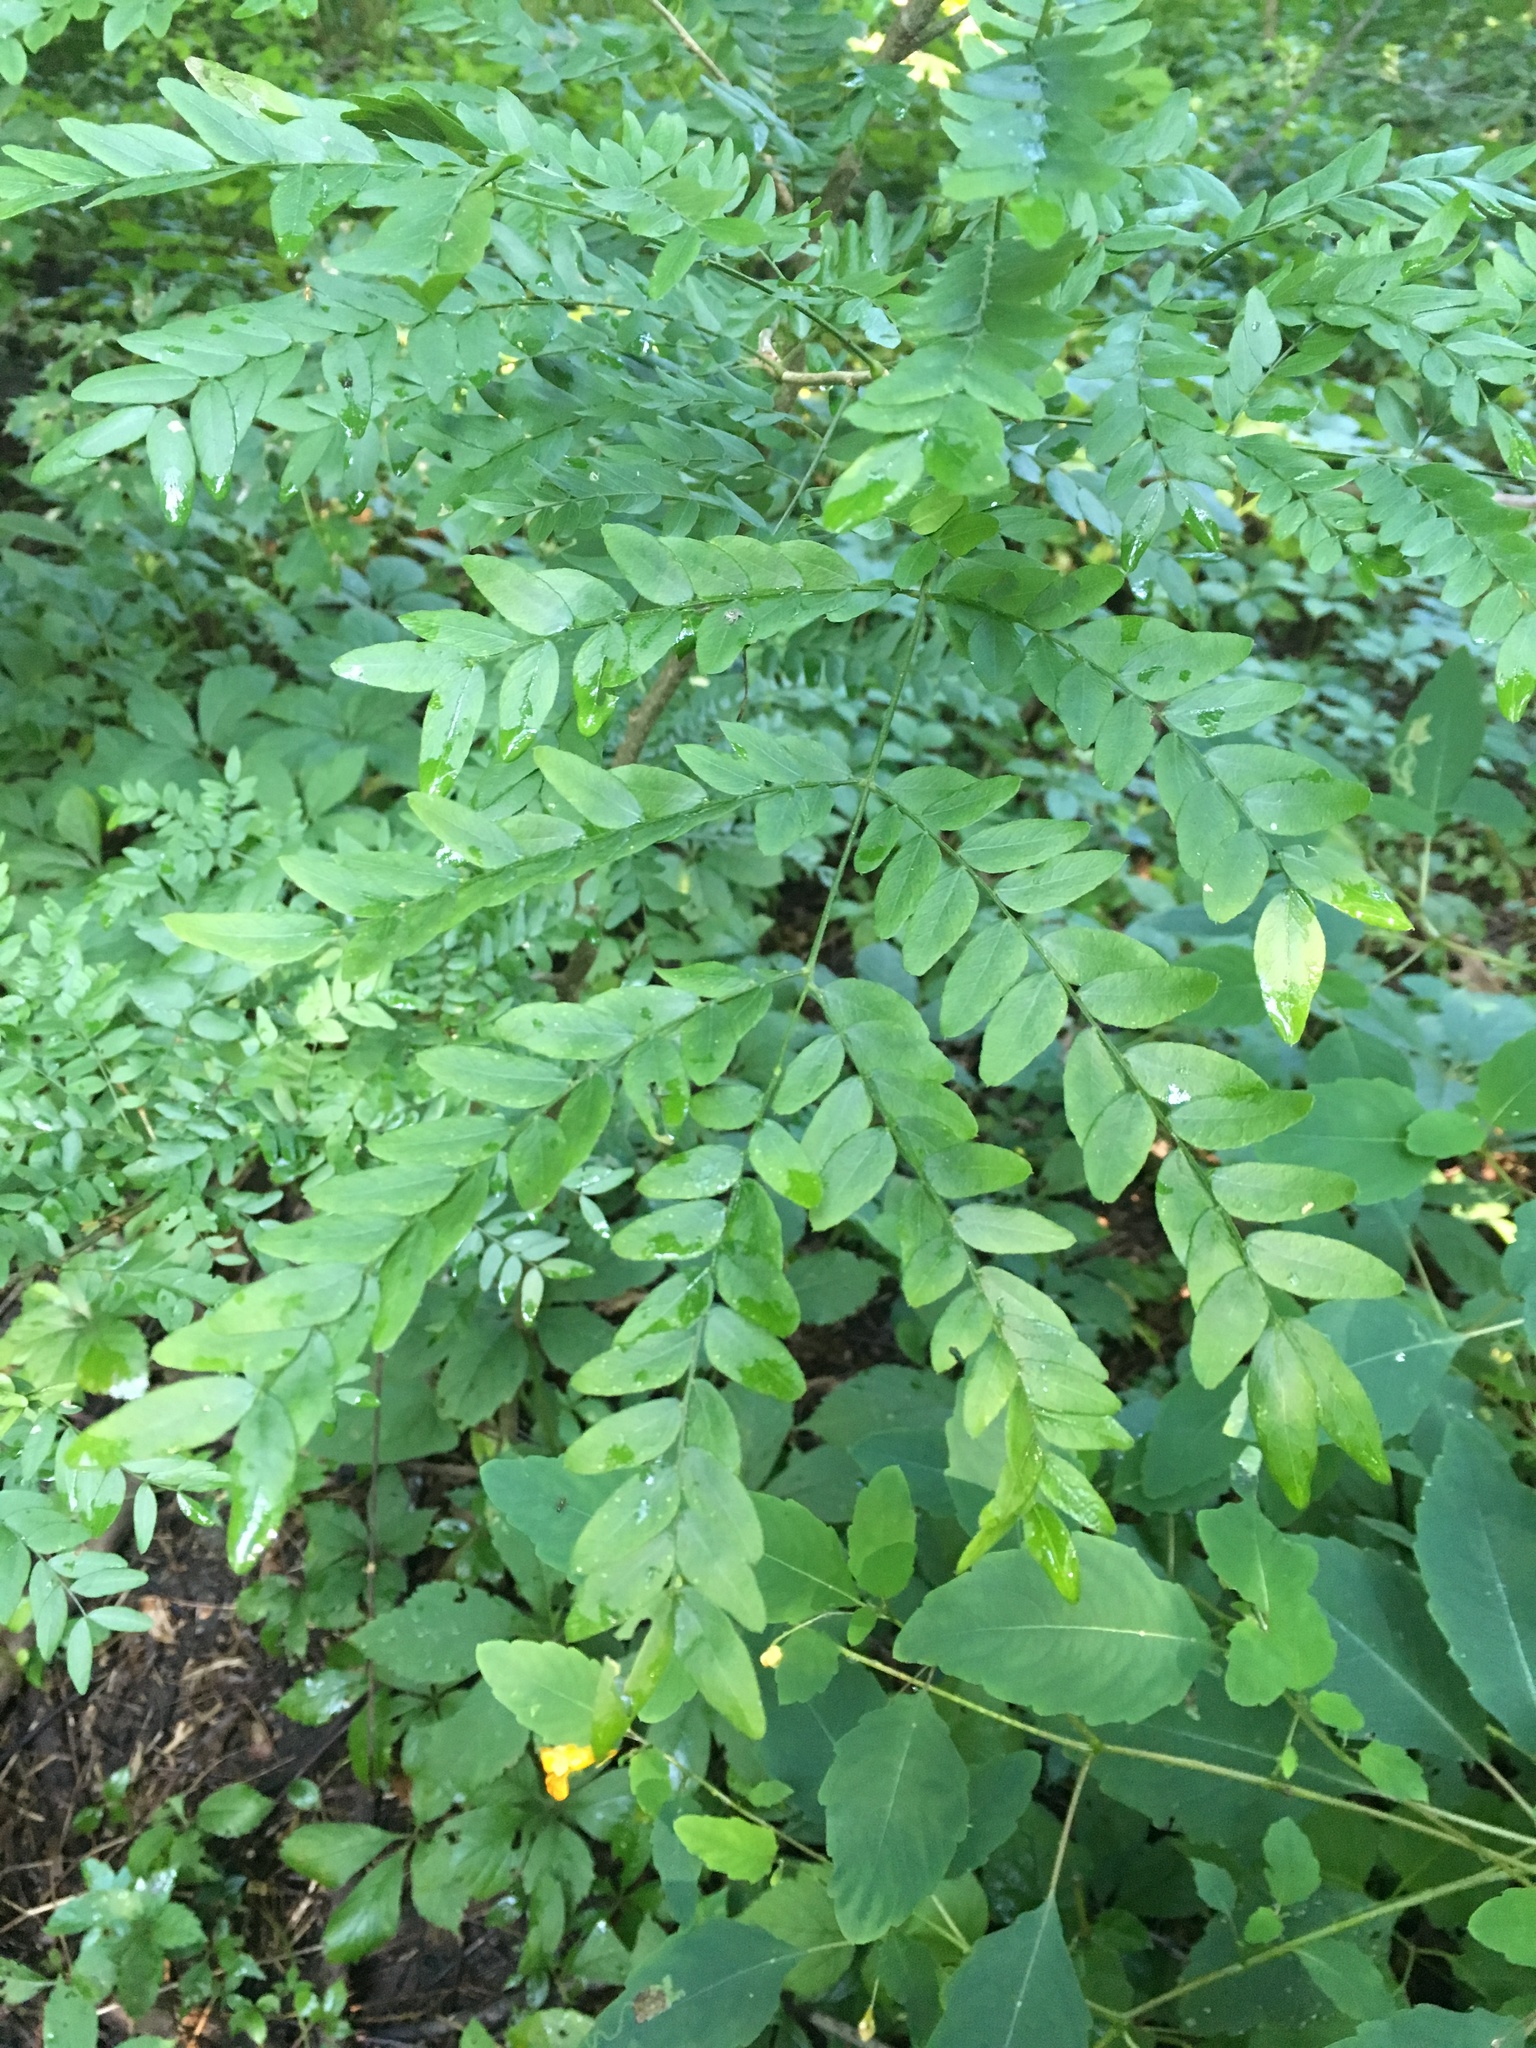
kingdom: Plantae
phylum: Tracheophyta
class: Magnoliopsida
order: Fabales
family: Fabaceae
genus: Gleditsia
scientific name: Gleditsia triacanthos
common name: Common honeylocust
